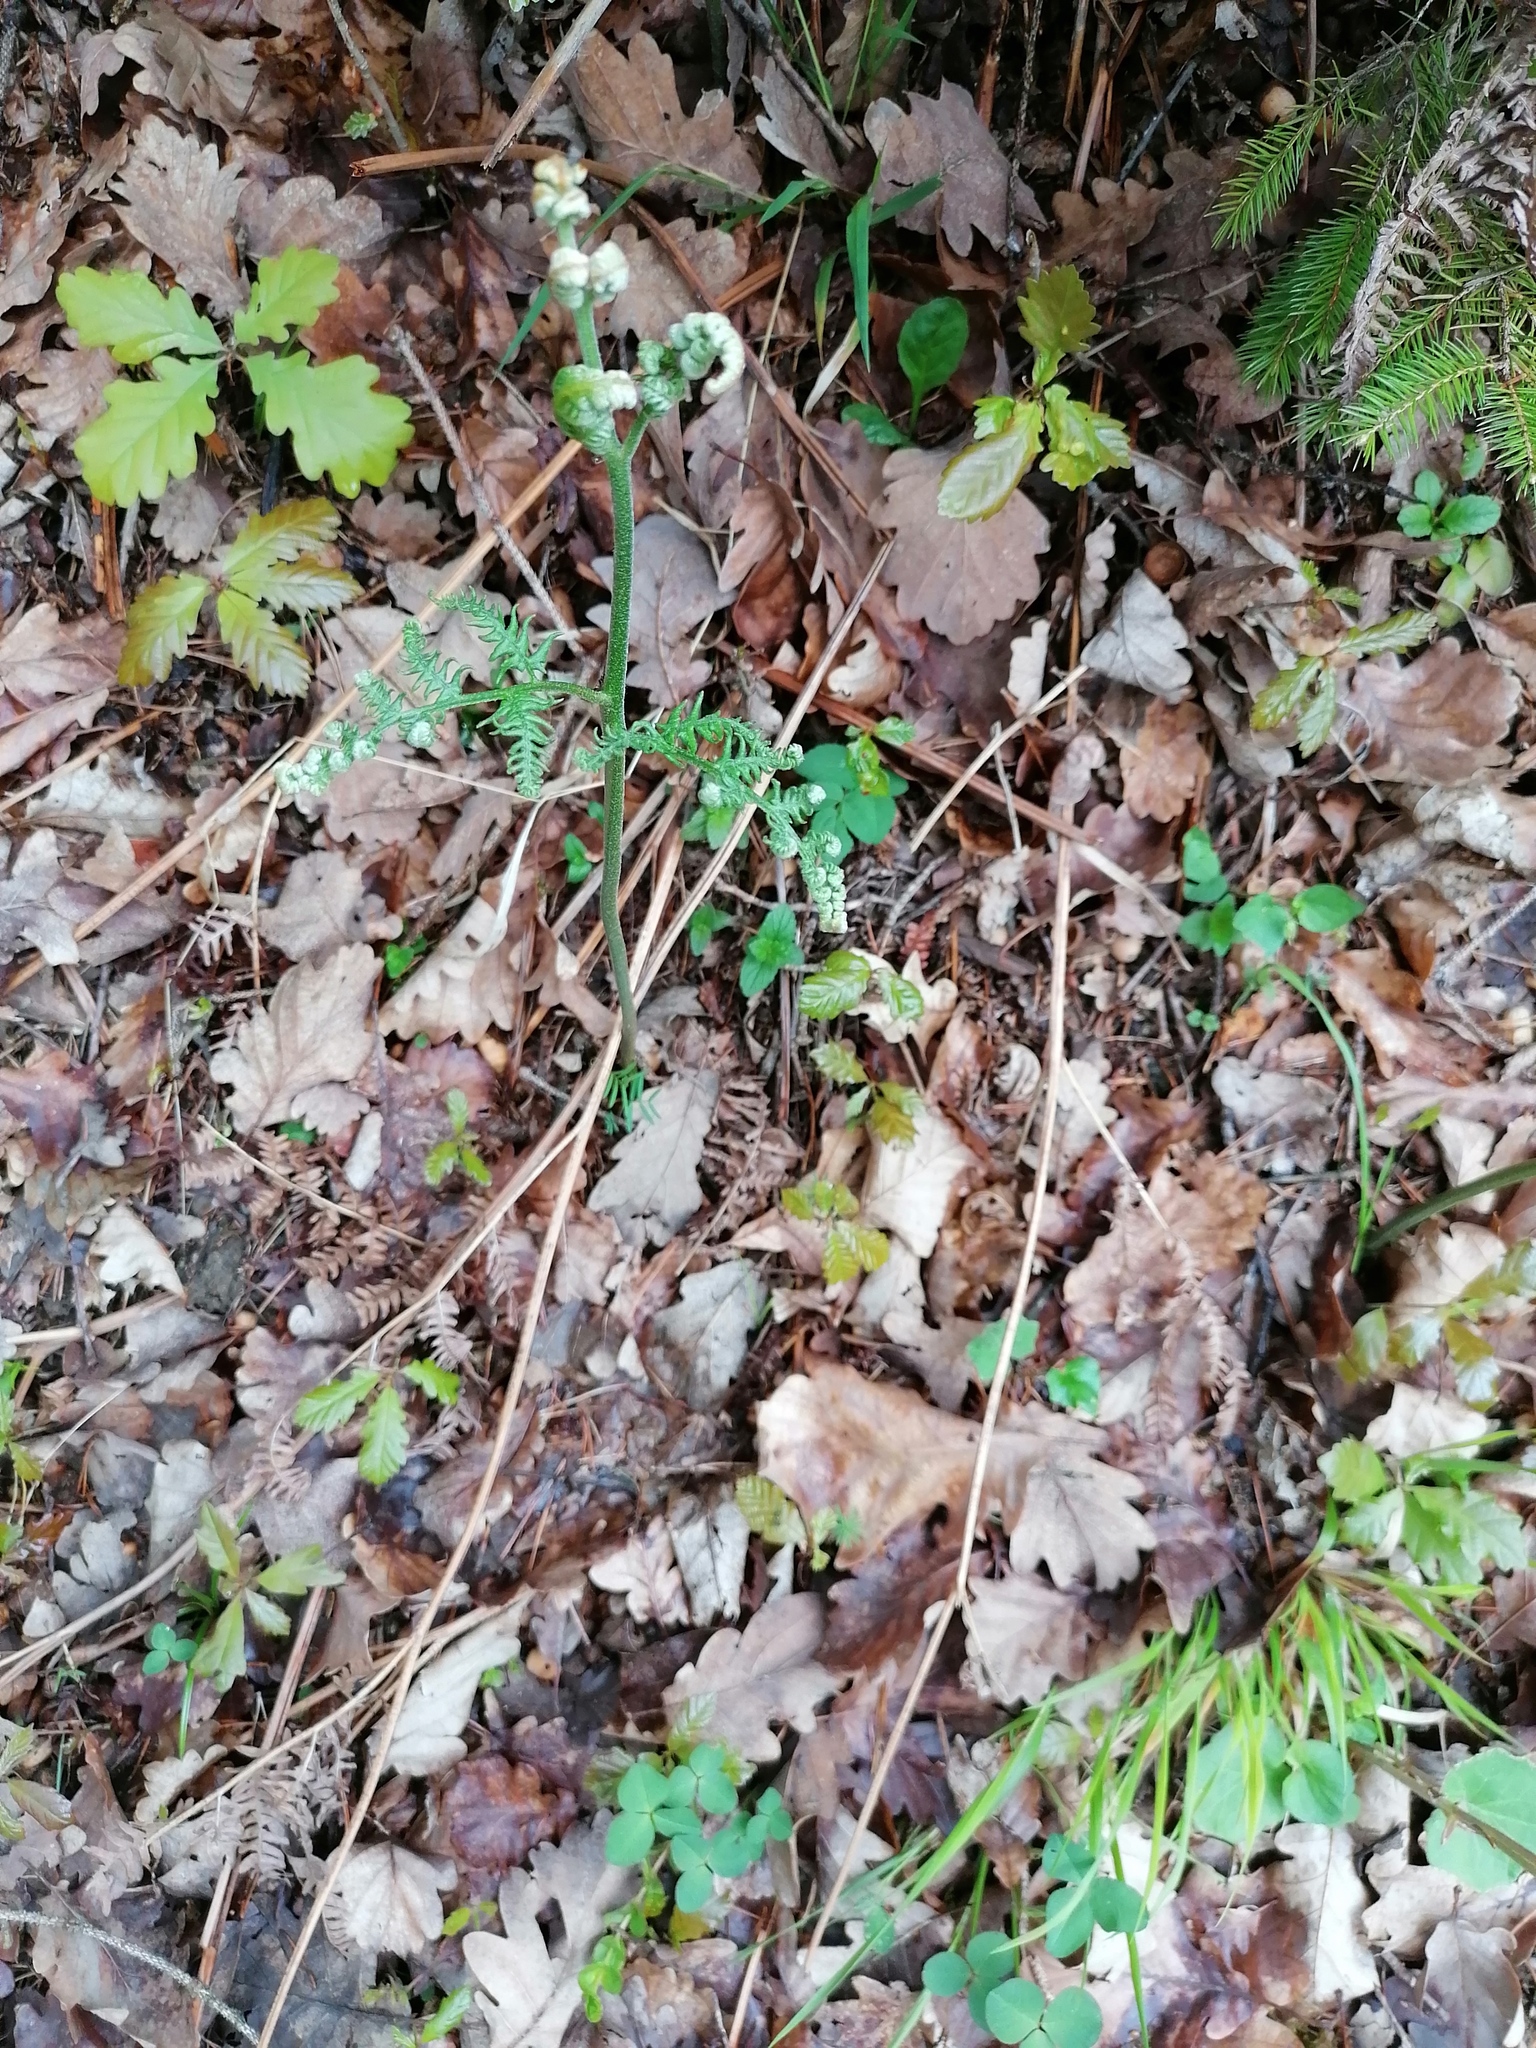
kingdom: Plantae
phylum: Tracheophyta
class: Polypodiopsida
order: Polypodiales
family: Dennstaedtiaceae
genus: Pteridium
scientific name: Pteridium aquilinum
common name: Bracken
